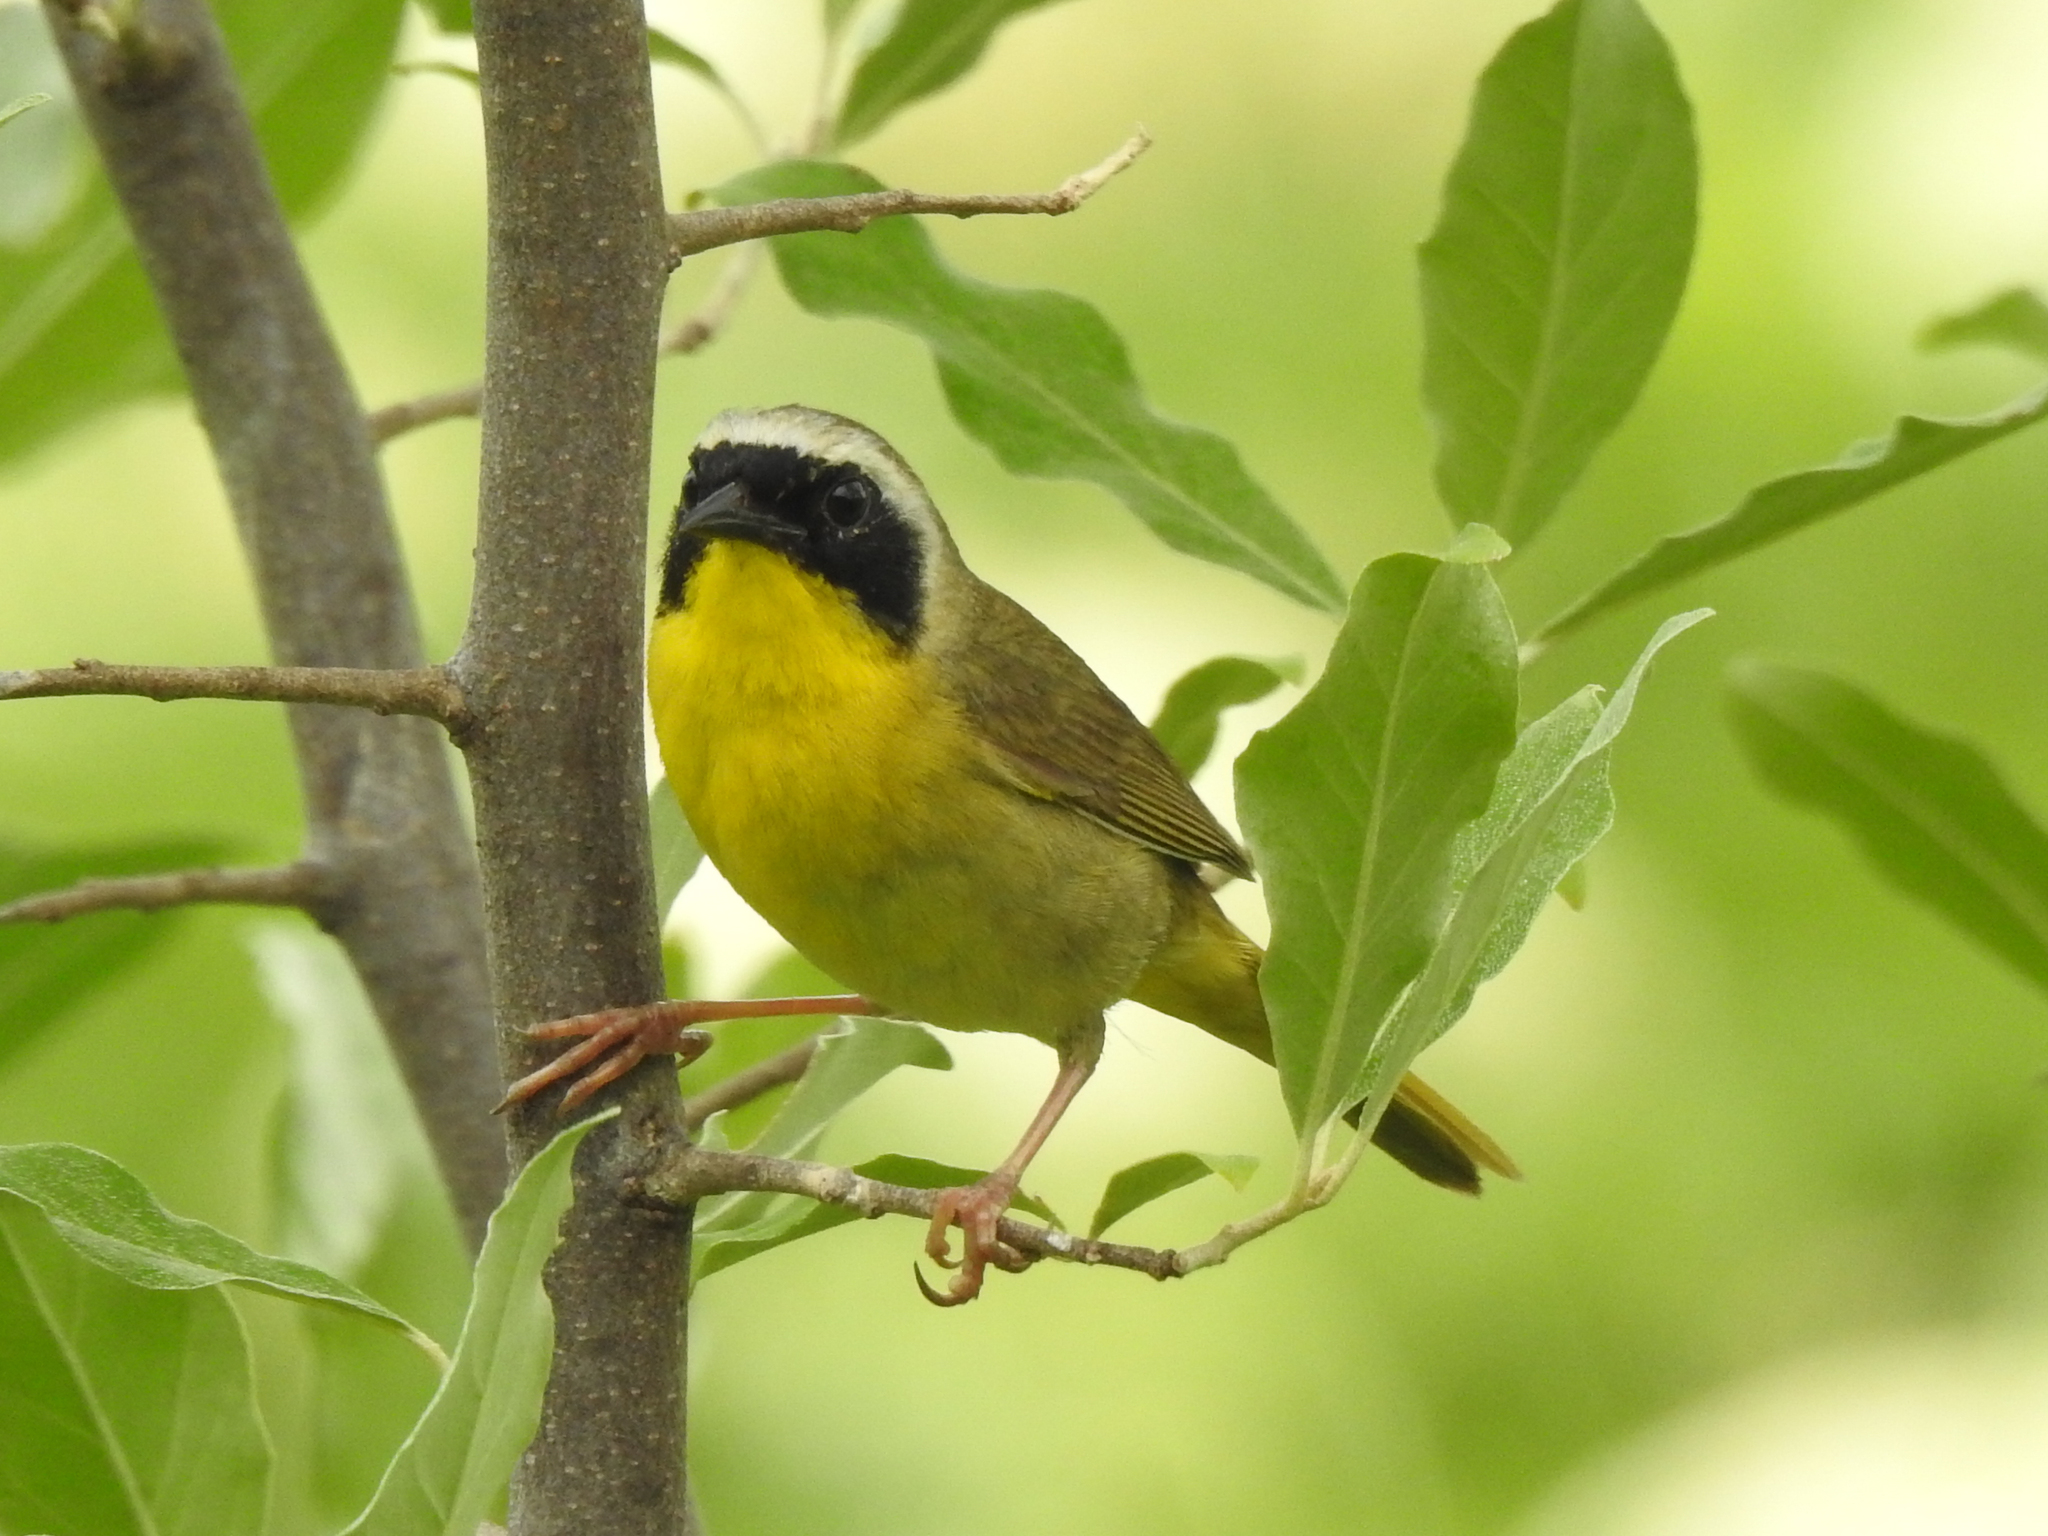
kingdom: Animalia
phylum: Chordata
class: Aves
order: Passeriformes
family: Parulidae
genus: Geothlypis
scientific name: Geothlypis trichas
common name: Common yellowthroat
